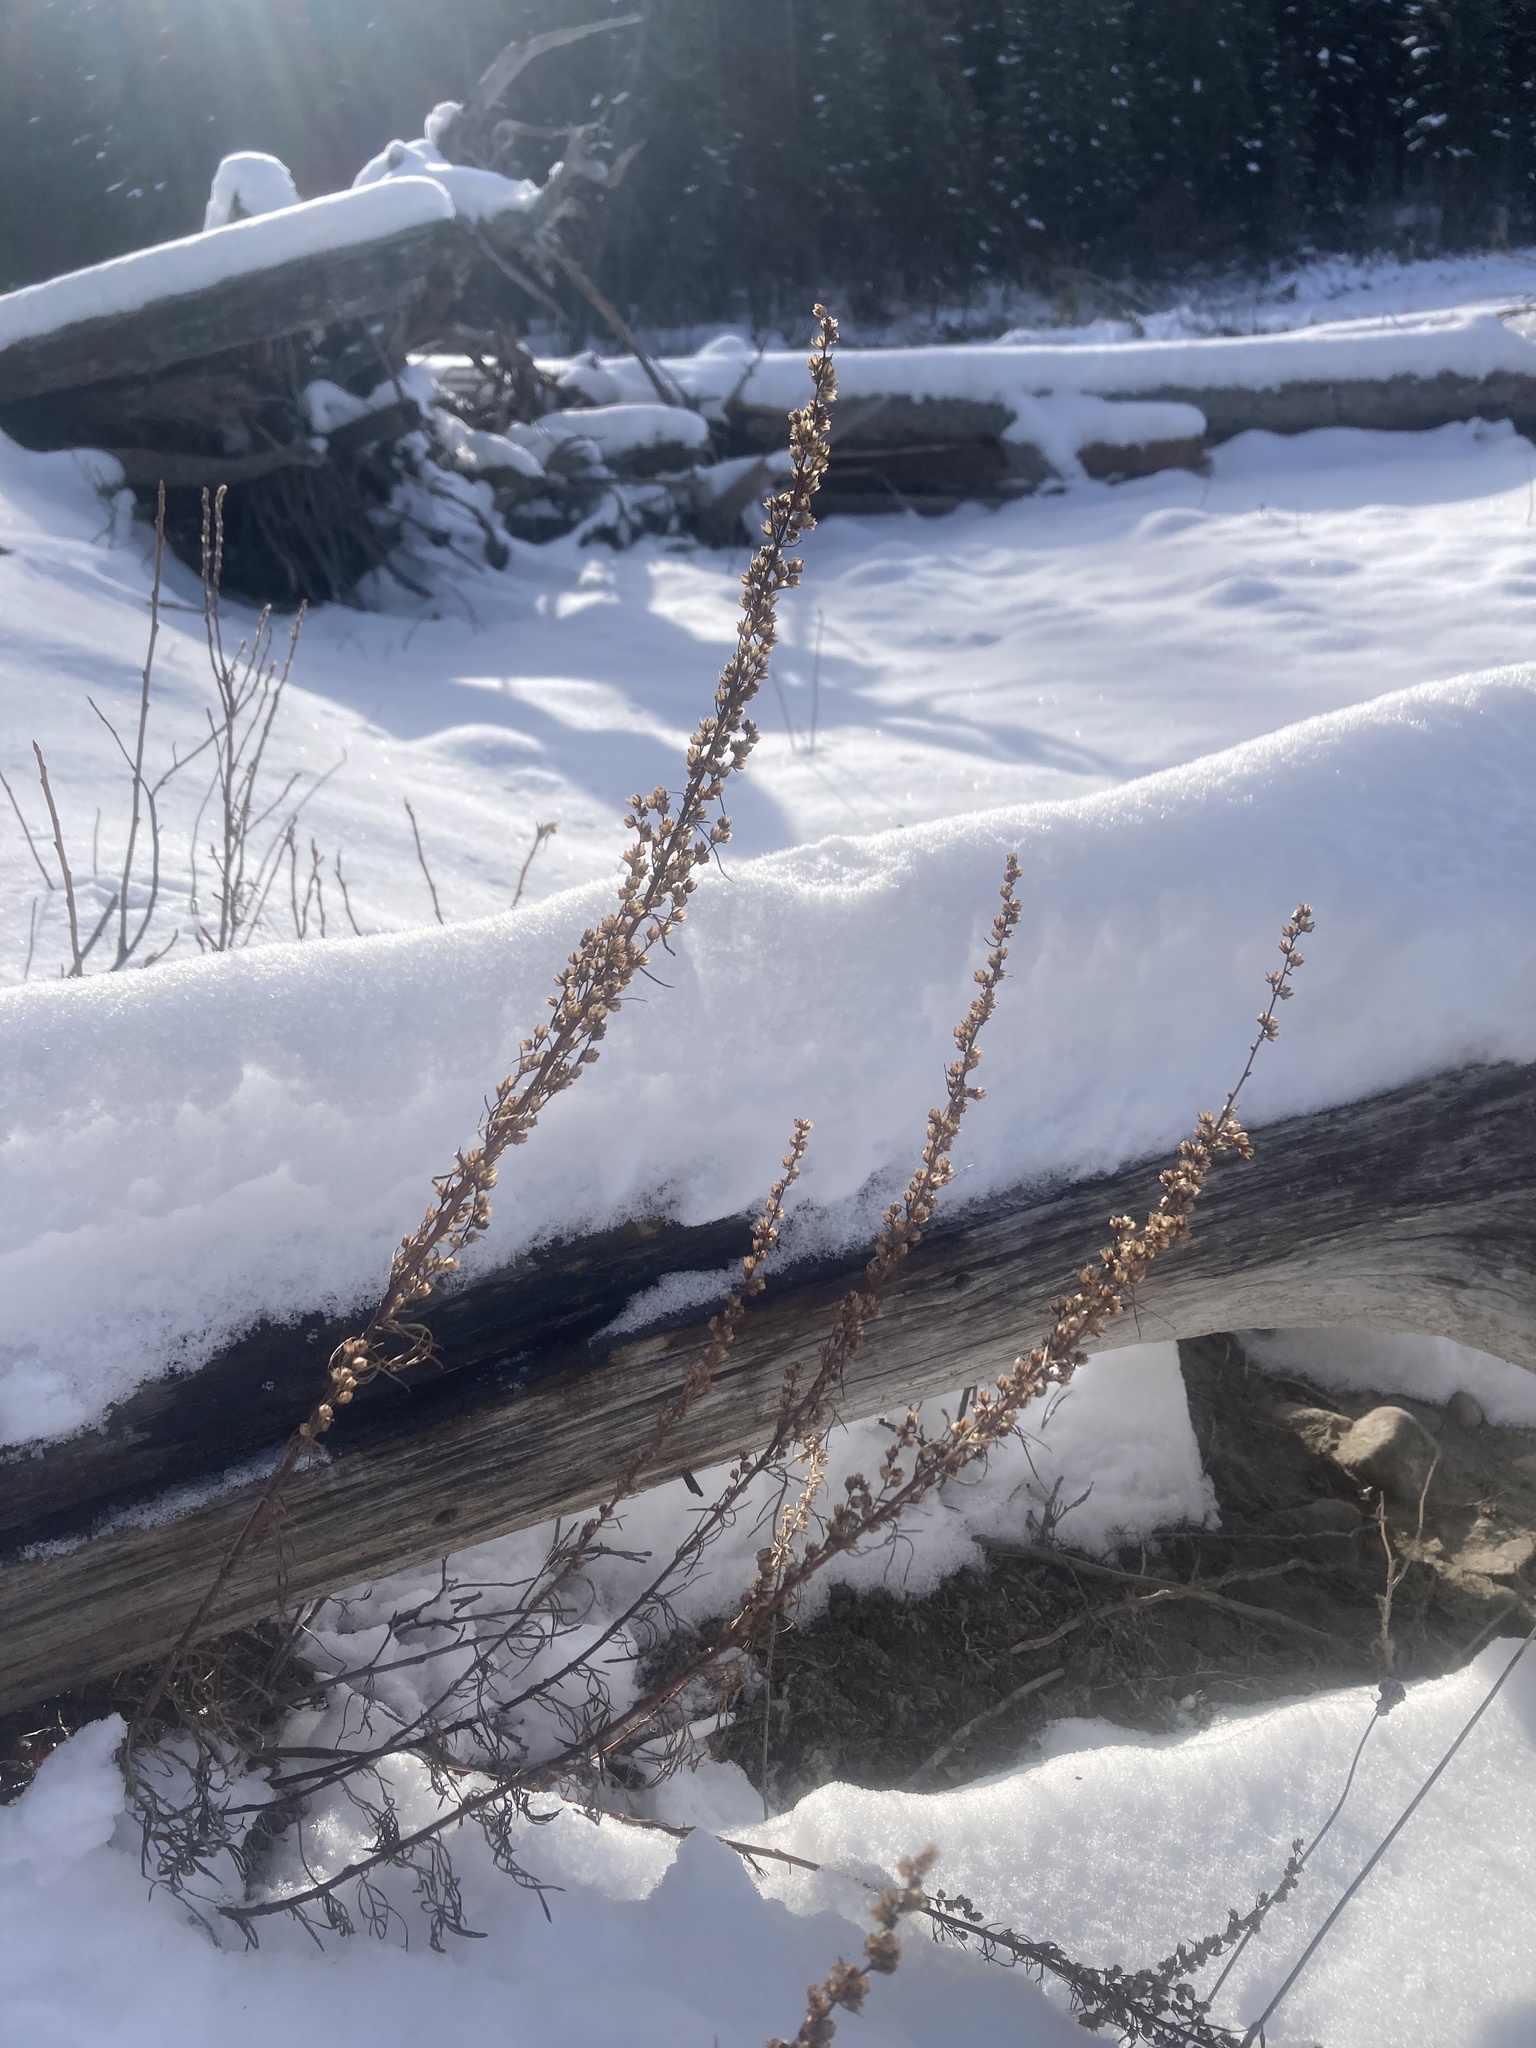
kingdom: Plantae
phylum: Tracheophyta
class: Magnoliopsida
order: Asterales
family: Asteraceae
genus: Artemisia
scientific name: Artemisia campestris
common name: Field wormwood
